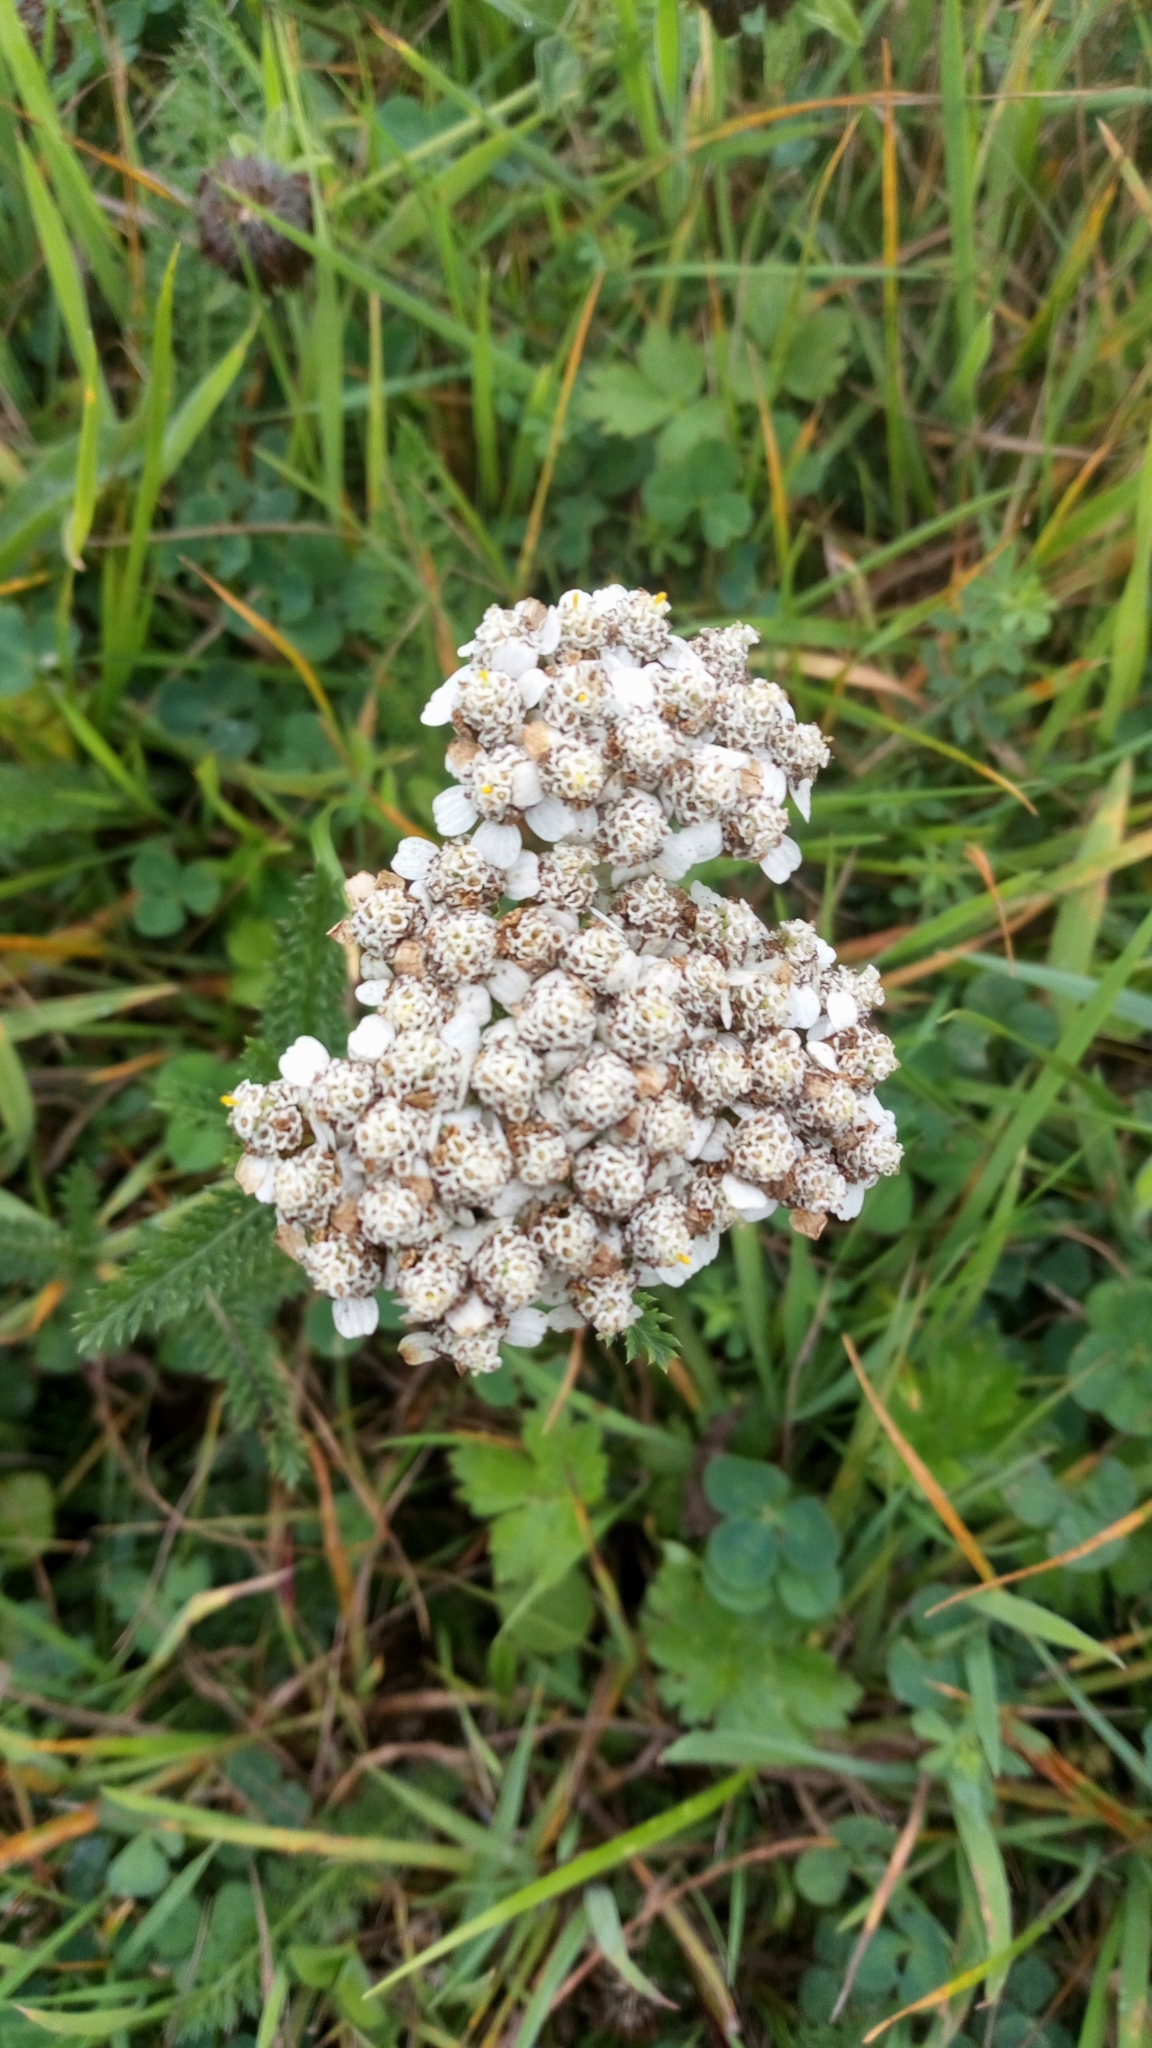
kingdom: Plantae
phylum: Tracheophyta
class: Magnoliopsida
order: Asterales
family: Asteraceae
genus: Achillea
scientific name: Achillea millefolium
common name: Yarrow
